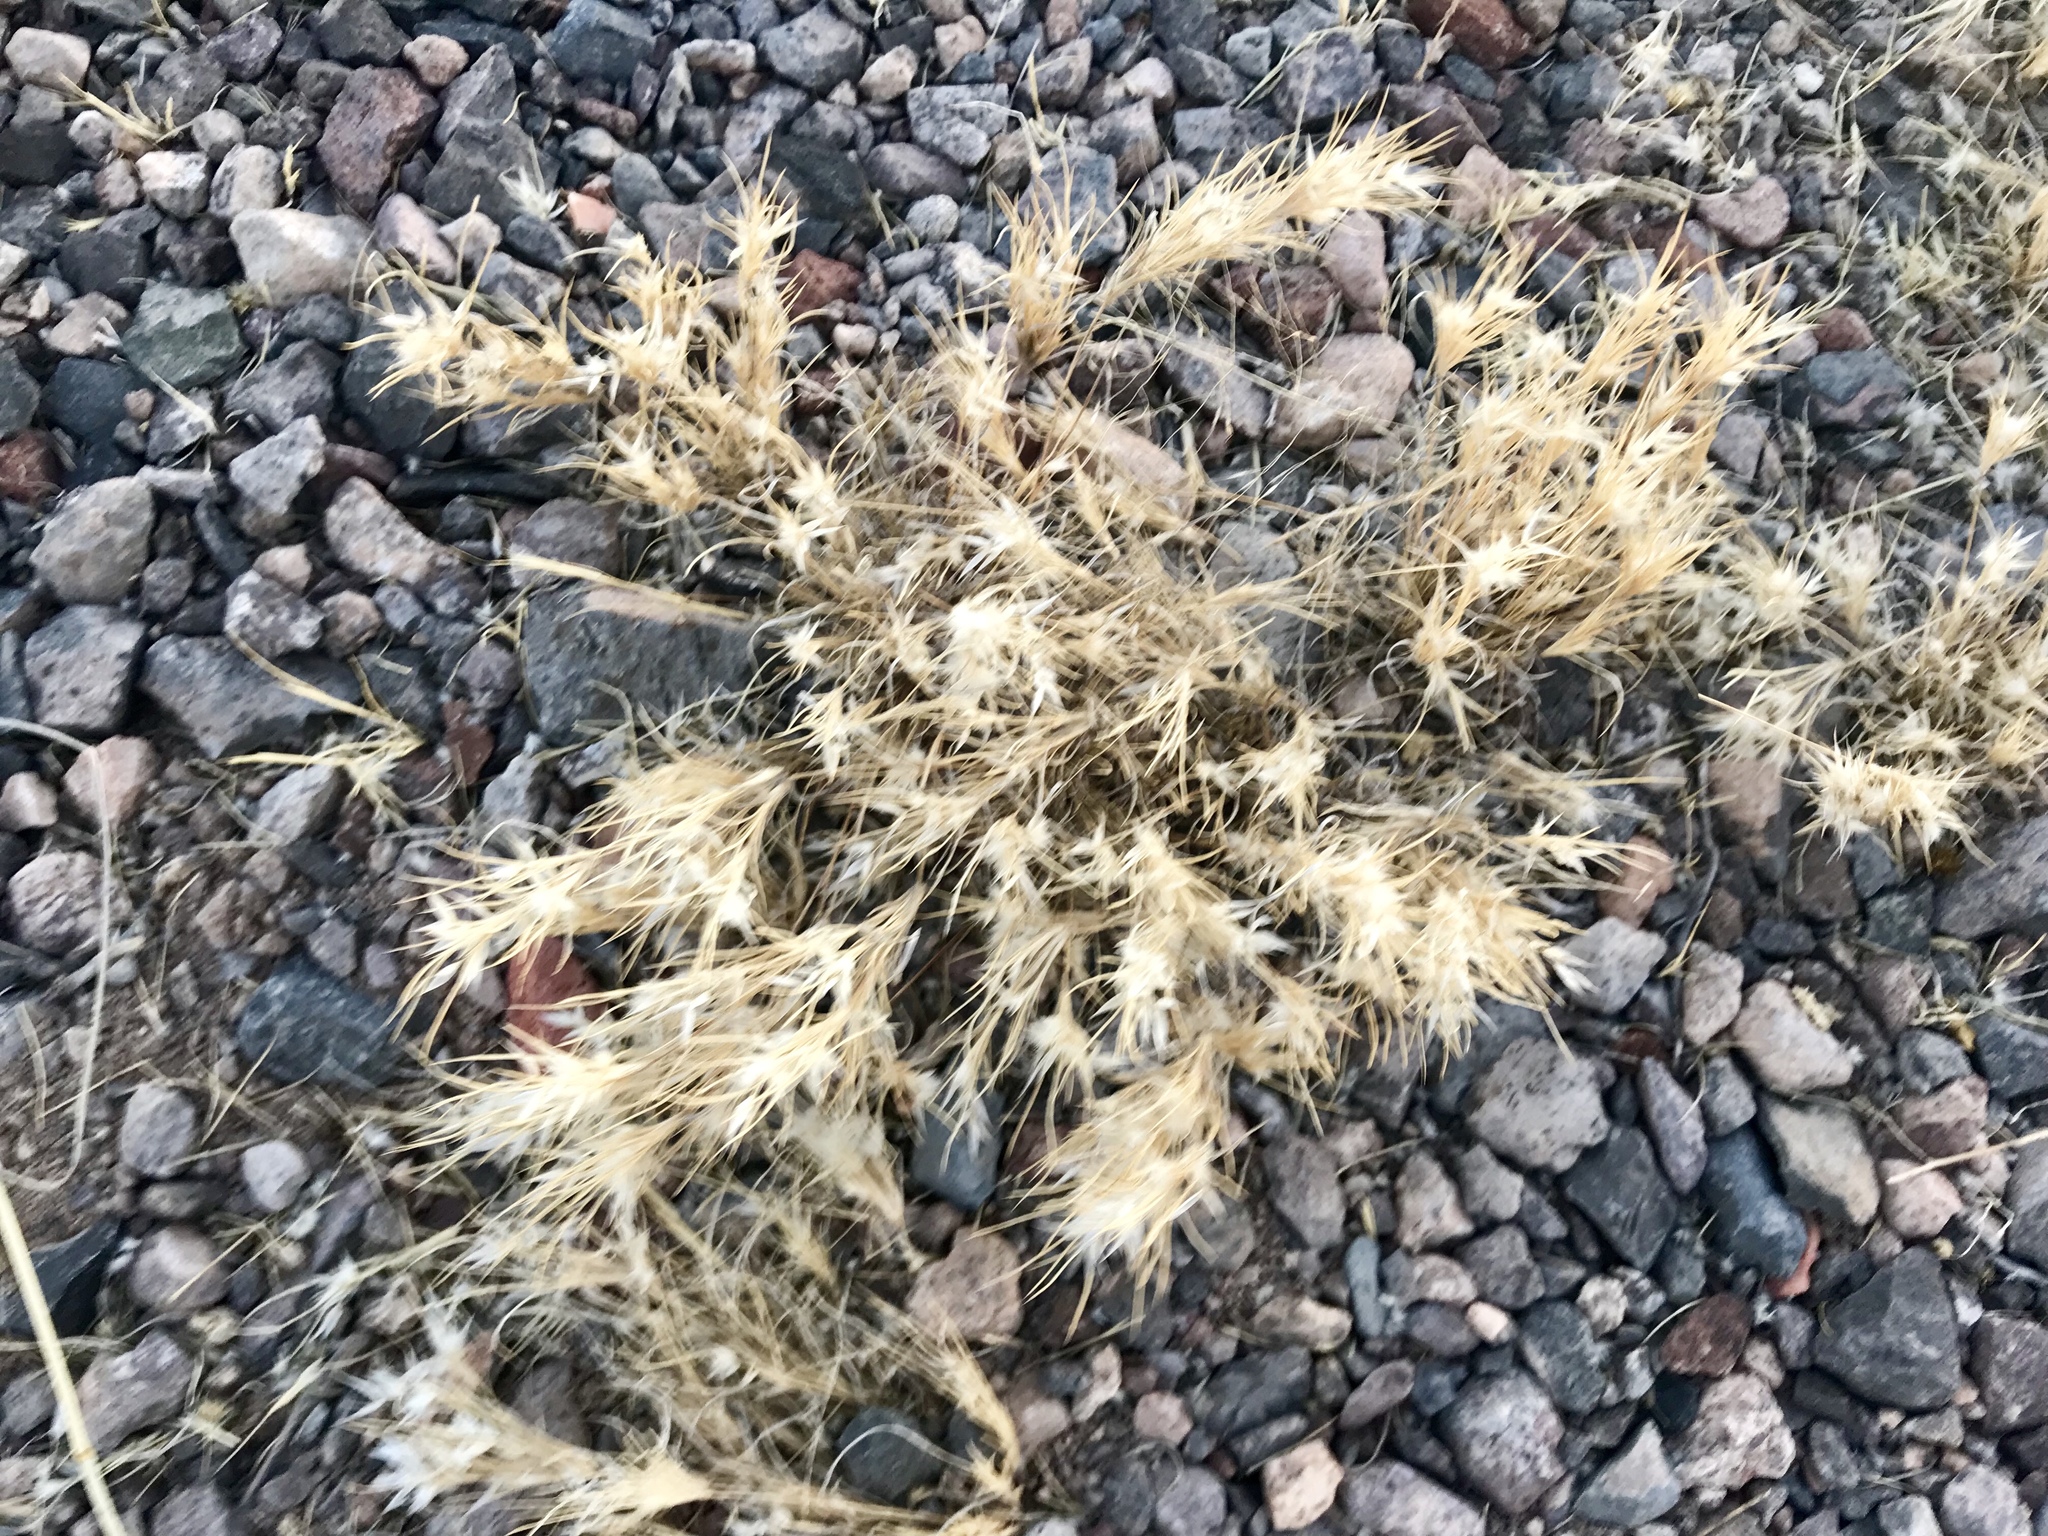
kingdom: Plantae
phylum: Tracheophyta
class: Liliopsida
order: Poales
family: Poaceae
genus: Dasyochloa
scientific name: Dasyochloa pulchella
